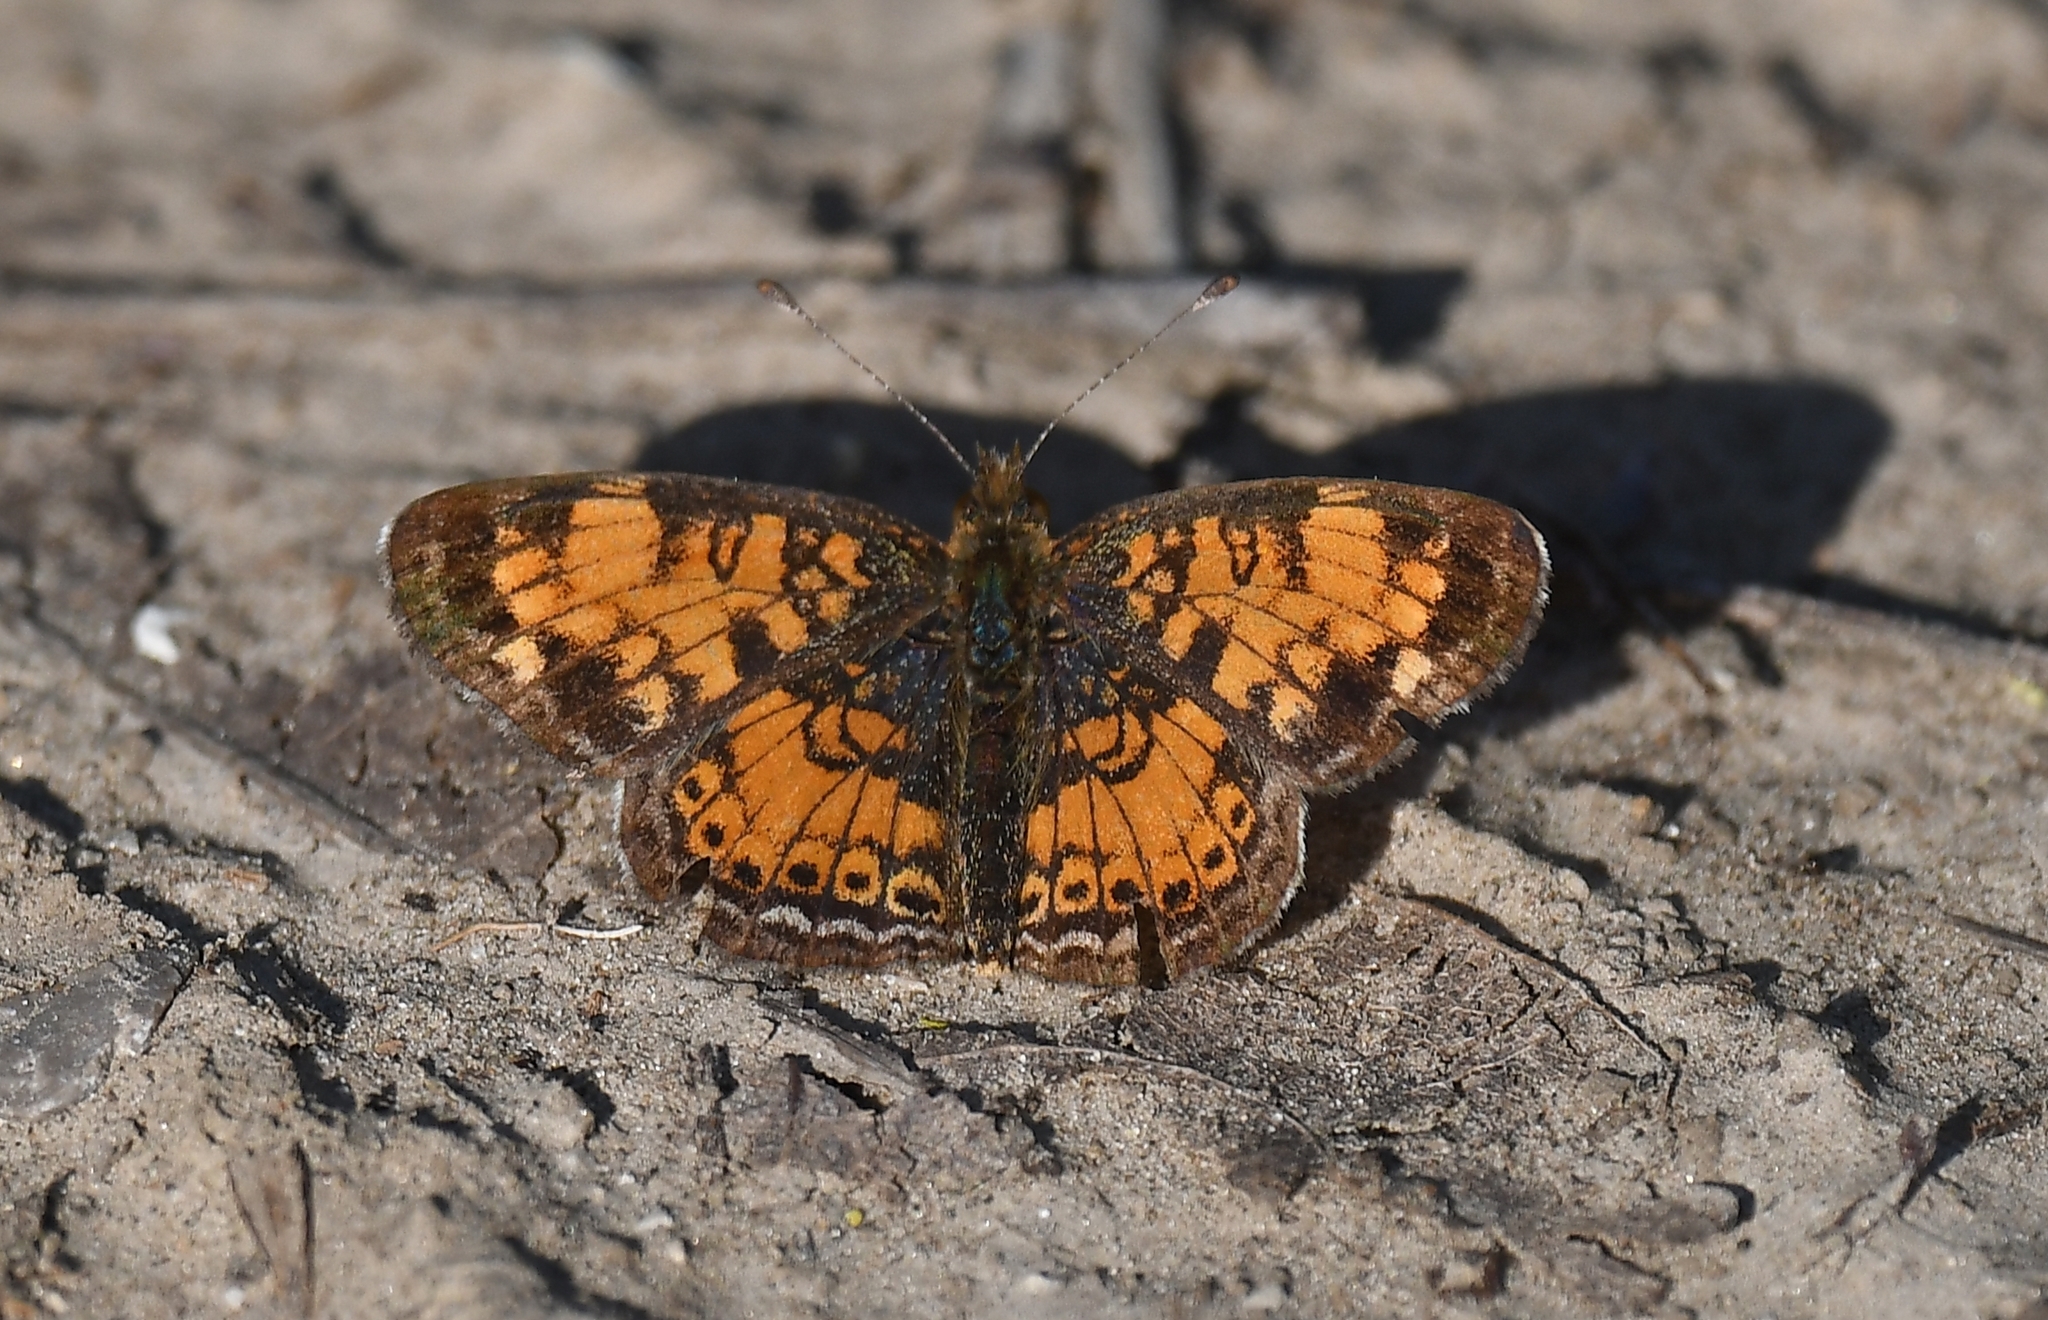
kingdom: Animalia
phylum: Arthropoda
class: Insecta
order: Lepidoptera
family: Nymphalidae
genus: Phyciodes
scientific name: Phyciodes tharos
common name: Pearl crescent
